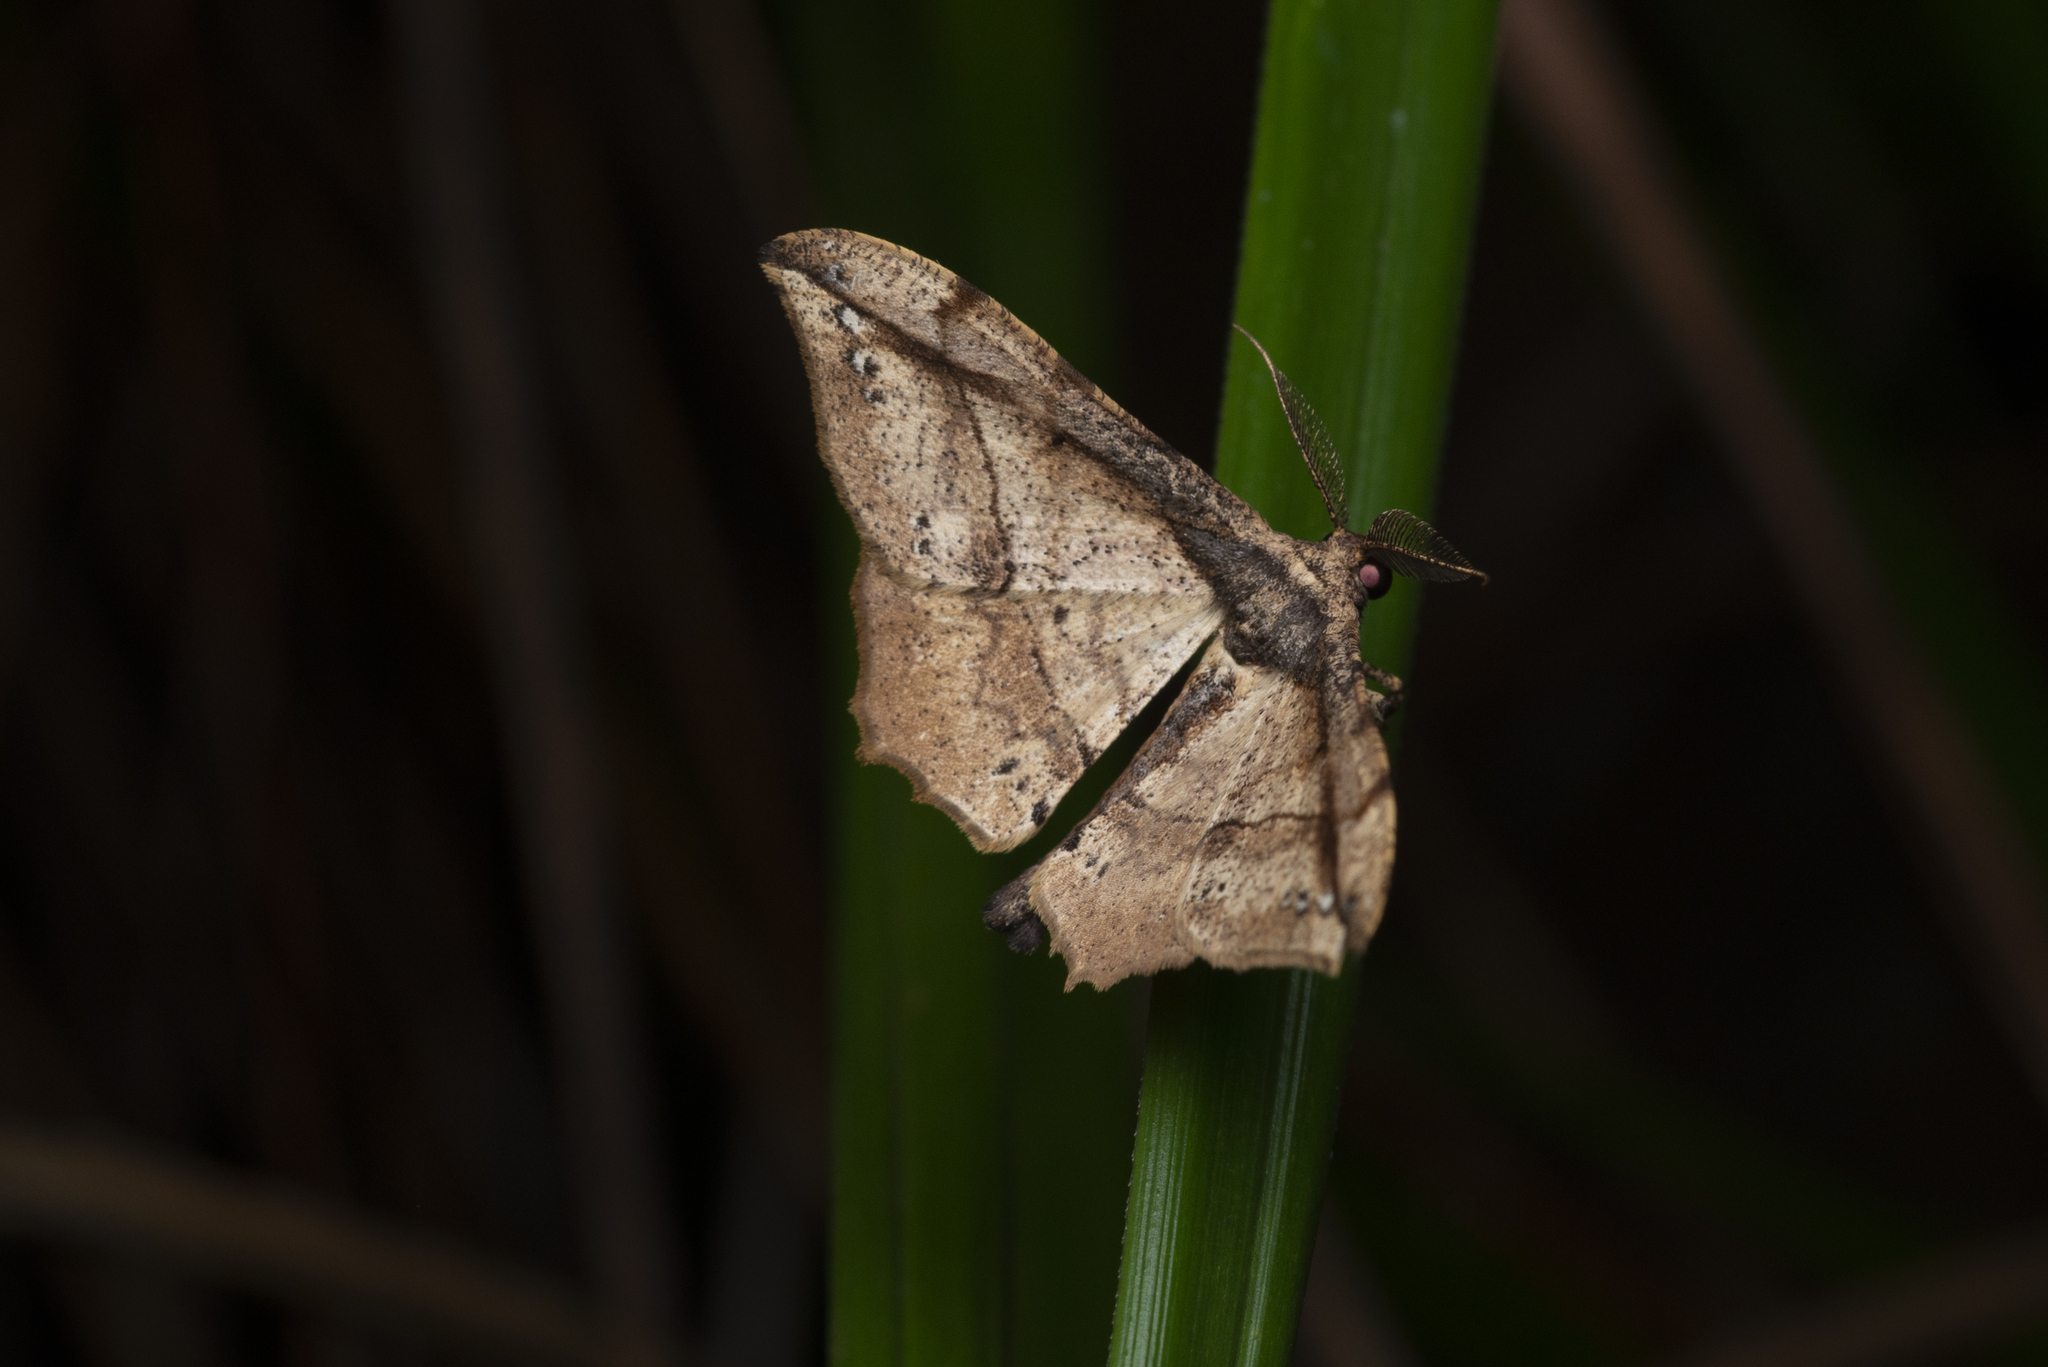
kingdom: Animalia
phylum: Arthropoda
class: Insecta
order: Lepidoptera
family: Geometridae
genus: Hyposidra
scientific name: Hyposidra infixaria
